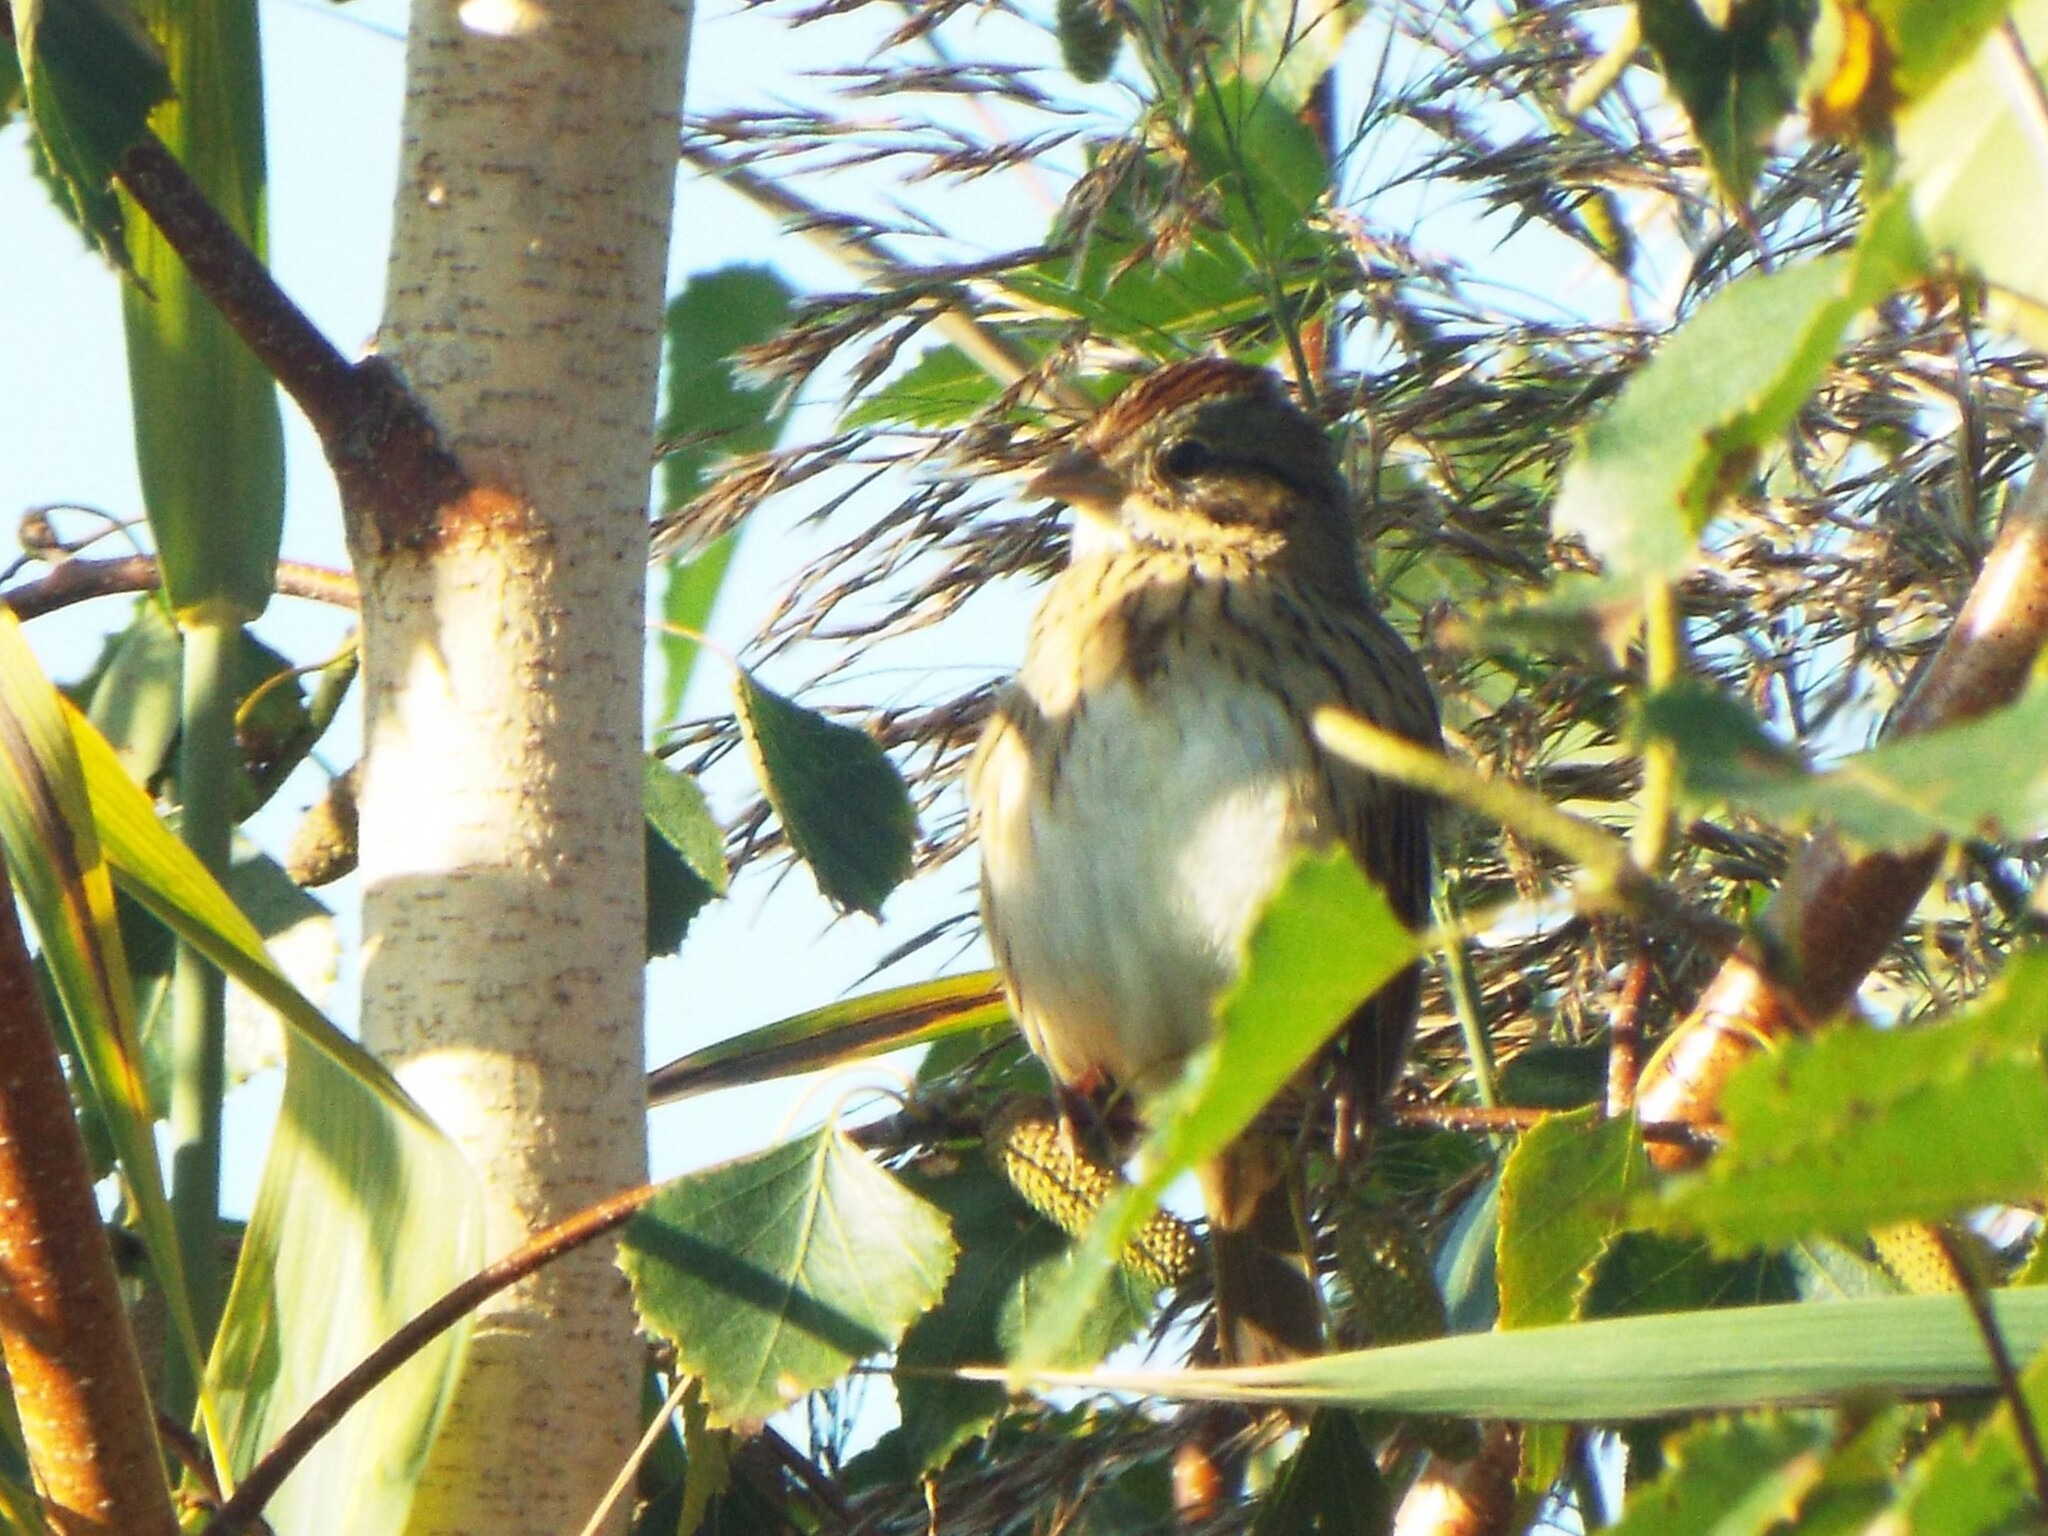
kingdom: Animalia
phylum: Chordata
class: Aves
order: Passeriformes
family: Passerellidae
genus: Melospiza
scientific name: Melospiza lincolnii
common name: Lincoln's sparrow
